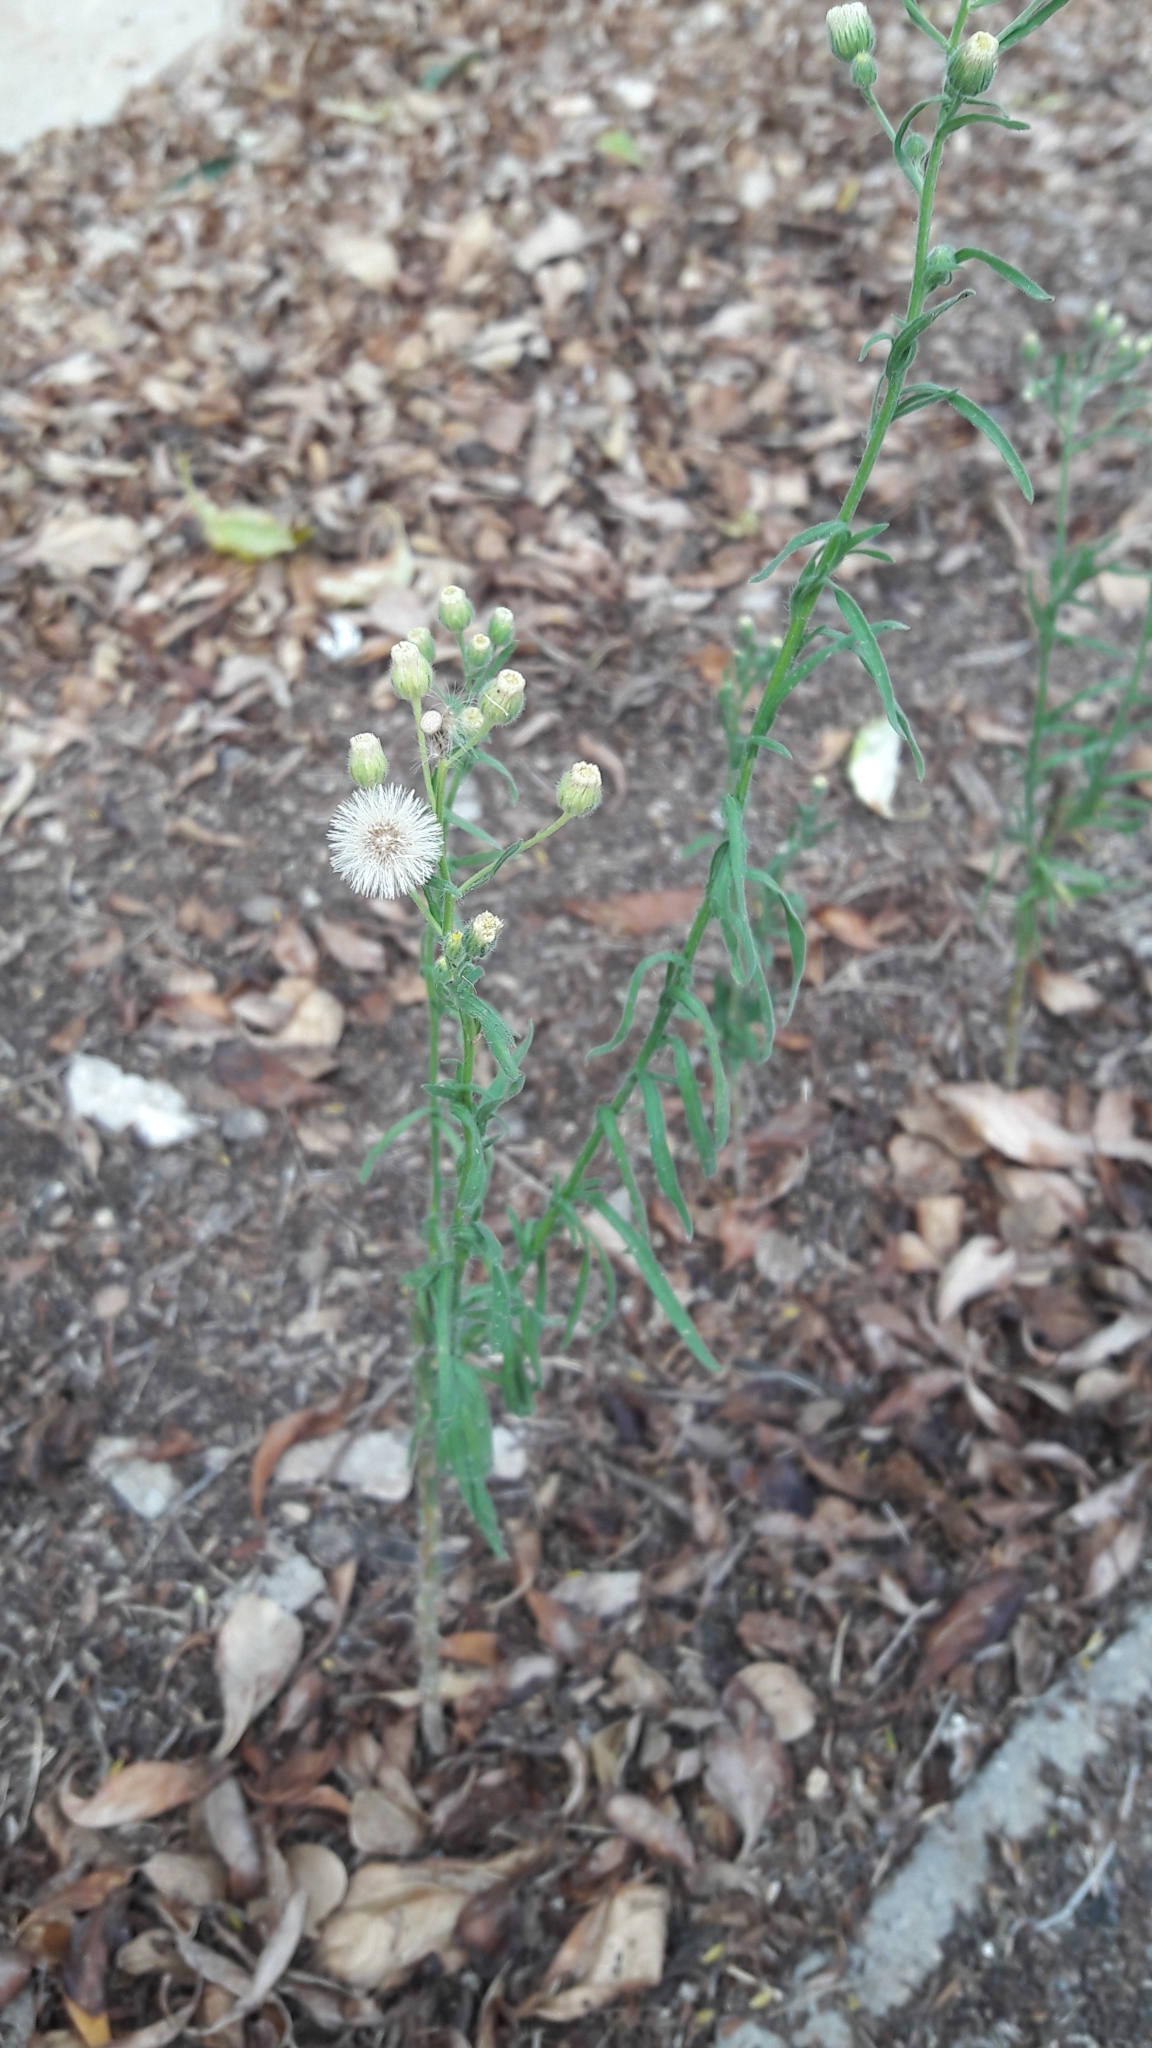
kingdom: Plantae
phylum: Tracheophyta
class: Magnoliopsida
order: Asterales
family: Asteraceae
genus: Erigeron
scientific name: Erigeron bonariensis
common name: Argentine fleabane
